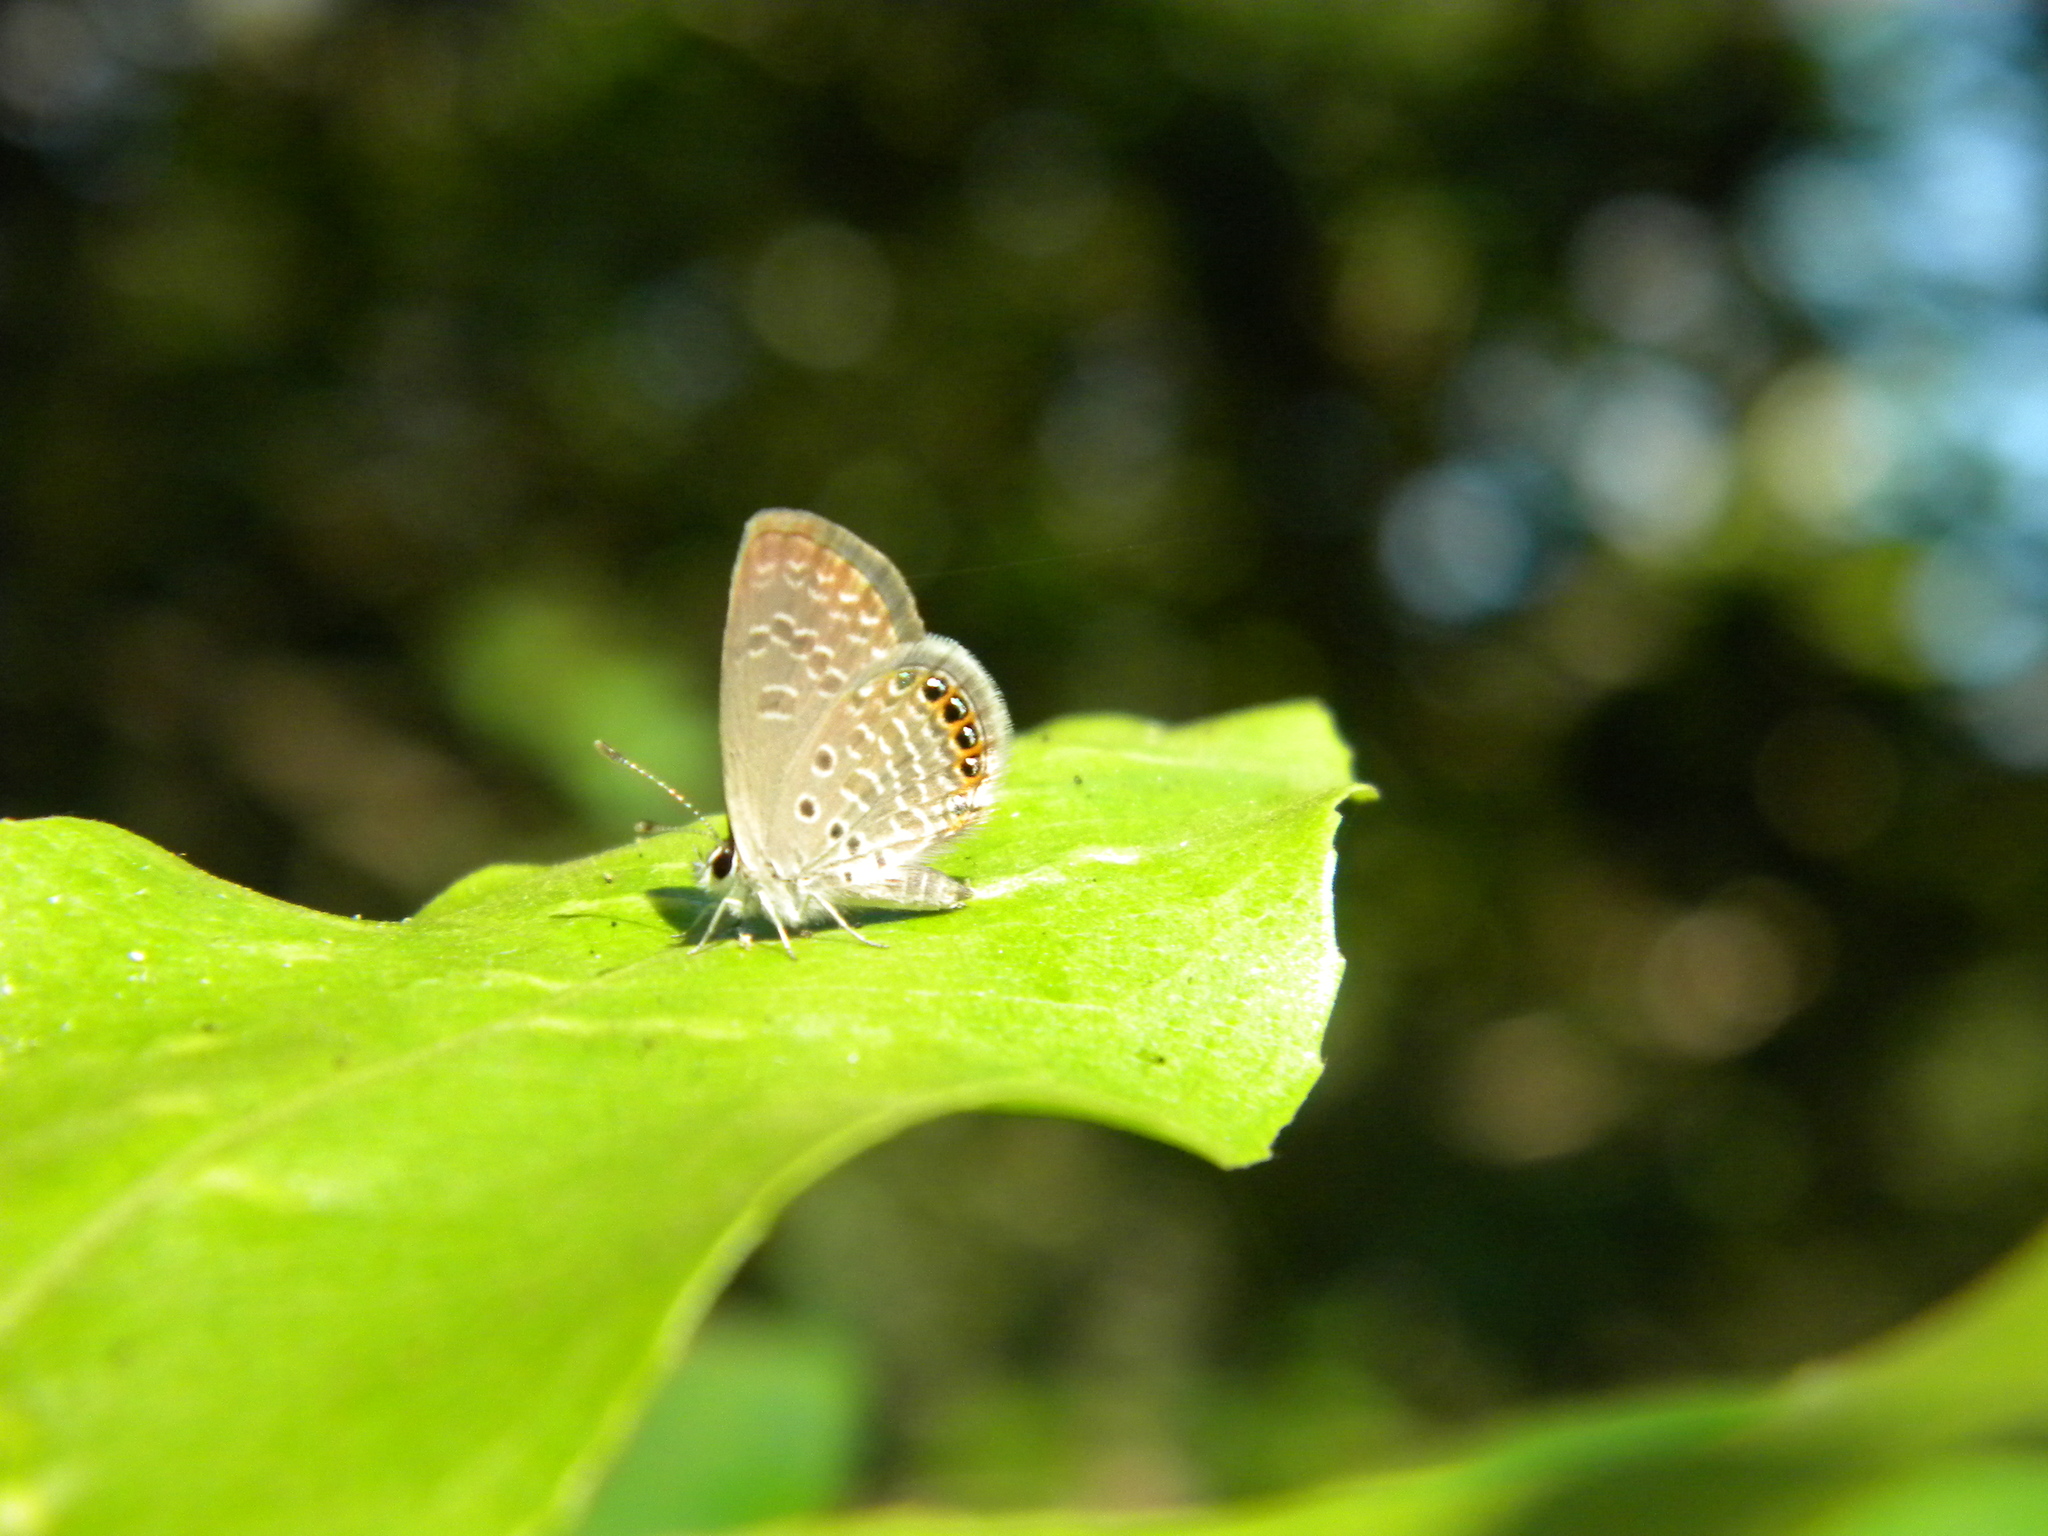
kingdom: Animalia
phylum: Arthropoda
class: Insecta
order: Lepidoptera
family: Lycaenidae
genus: Freyeria
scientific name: Freyeria putli
